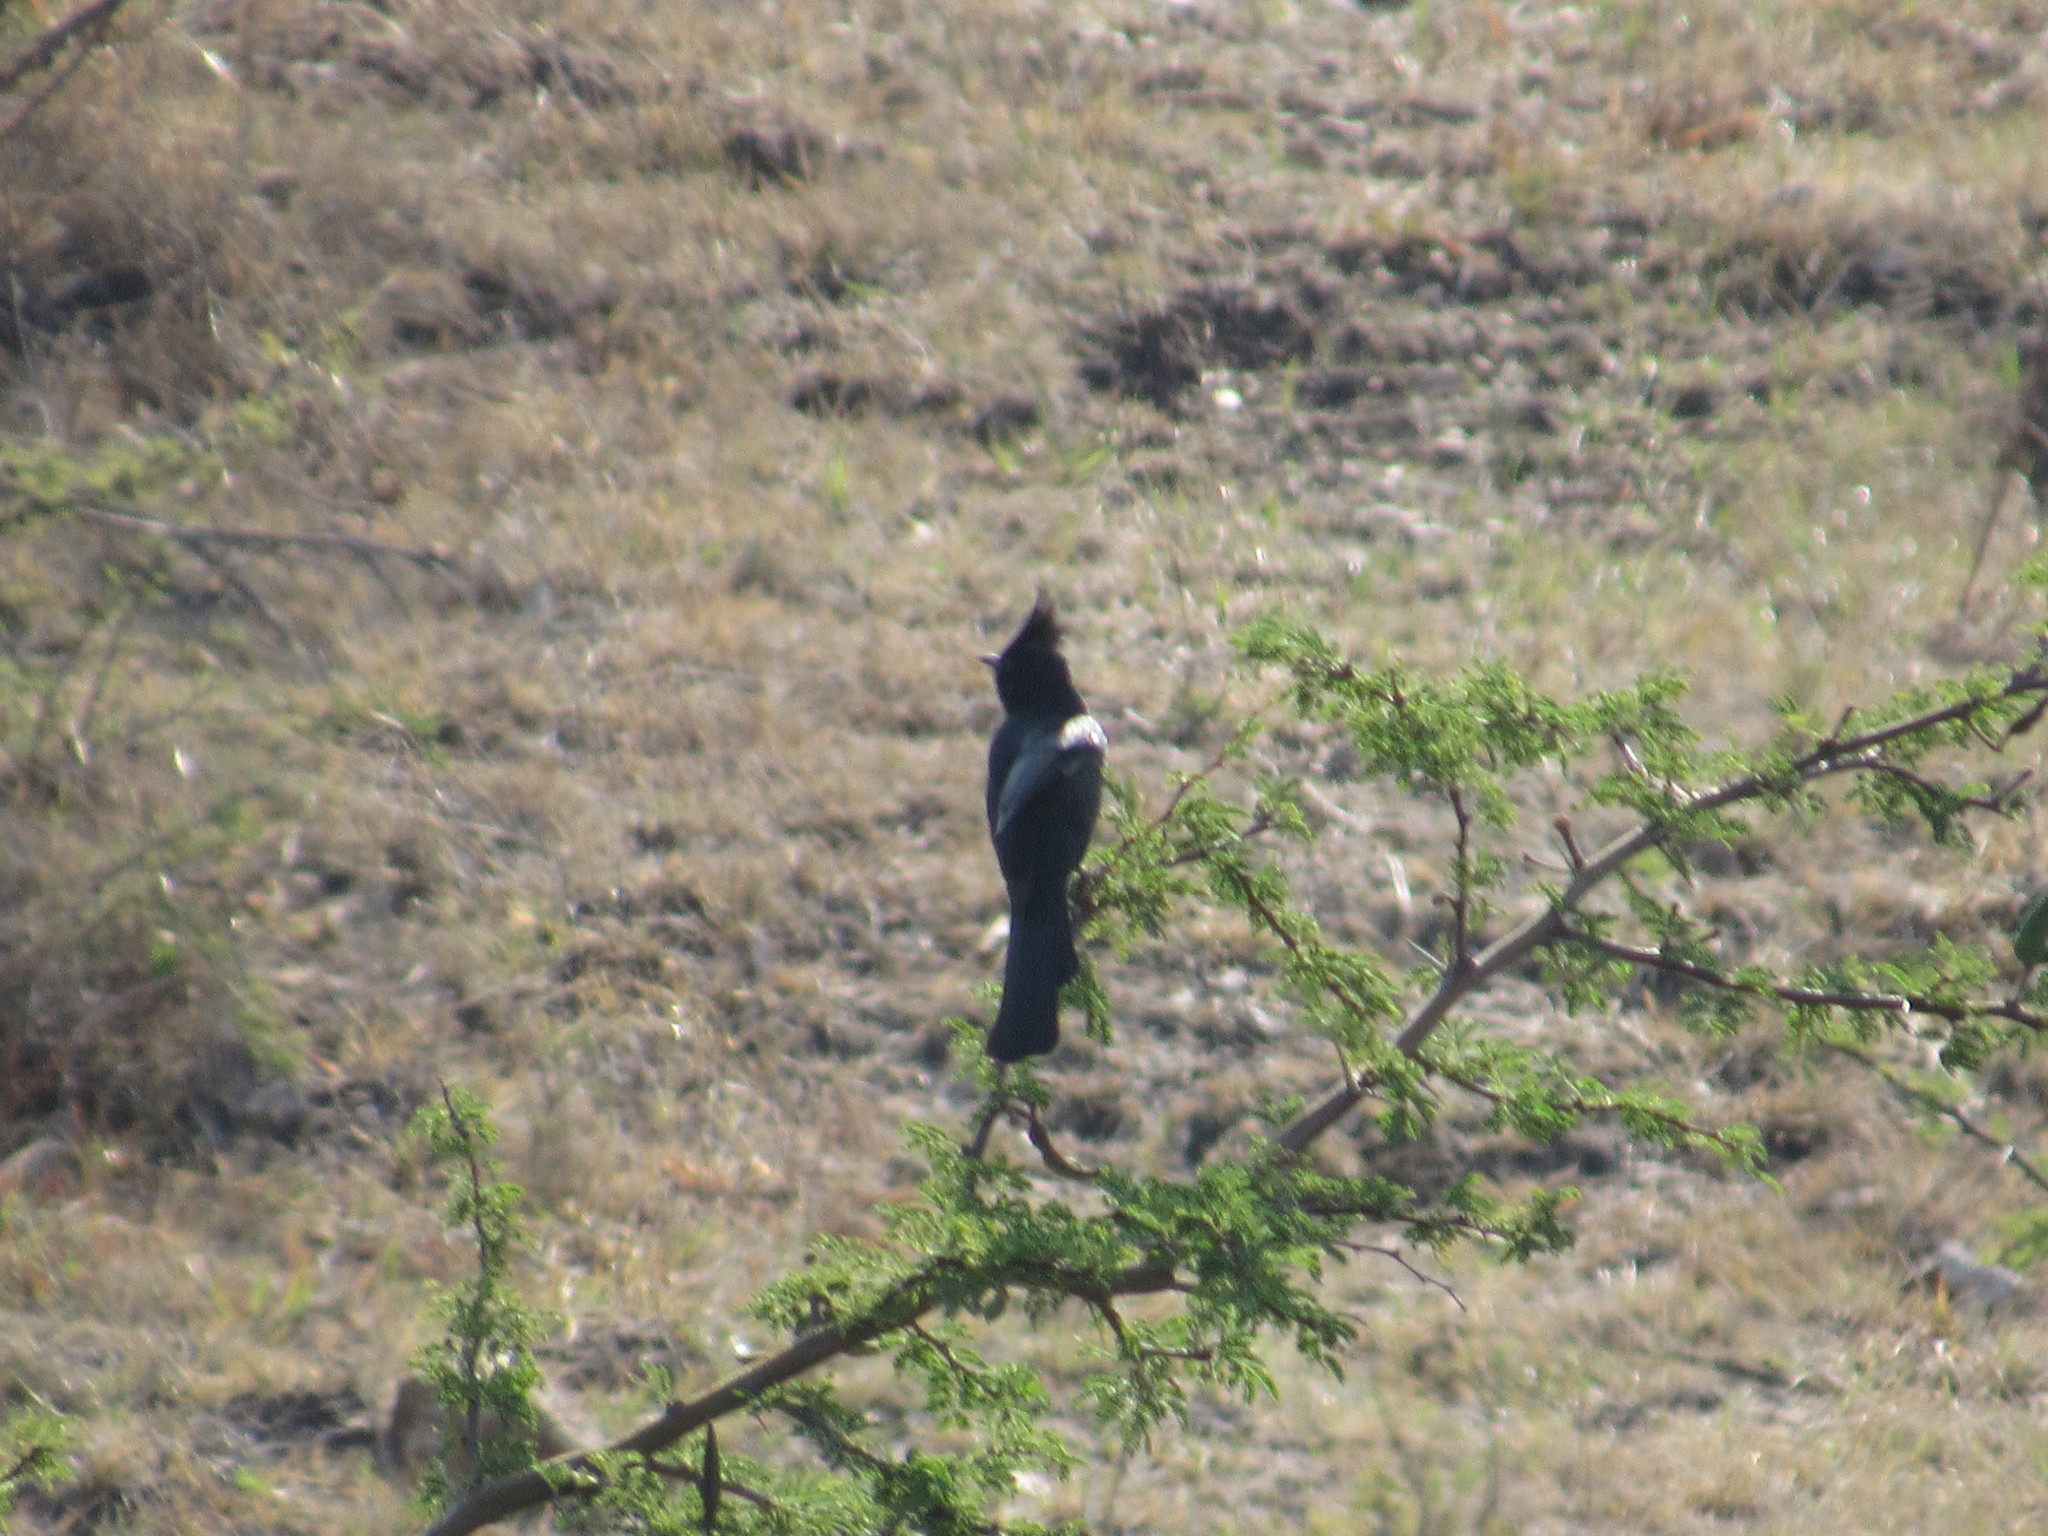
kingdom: Animalia
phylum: Chordata
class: Aves
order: Passeriformes
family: Ptilogonatidae
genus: Phainopepla
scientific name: Phainopepla nitens
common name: Phainopepla
